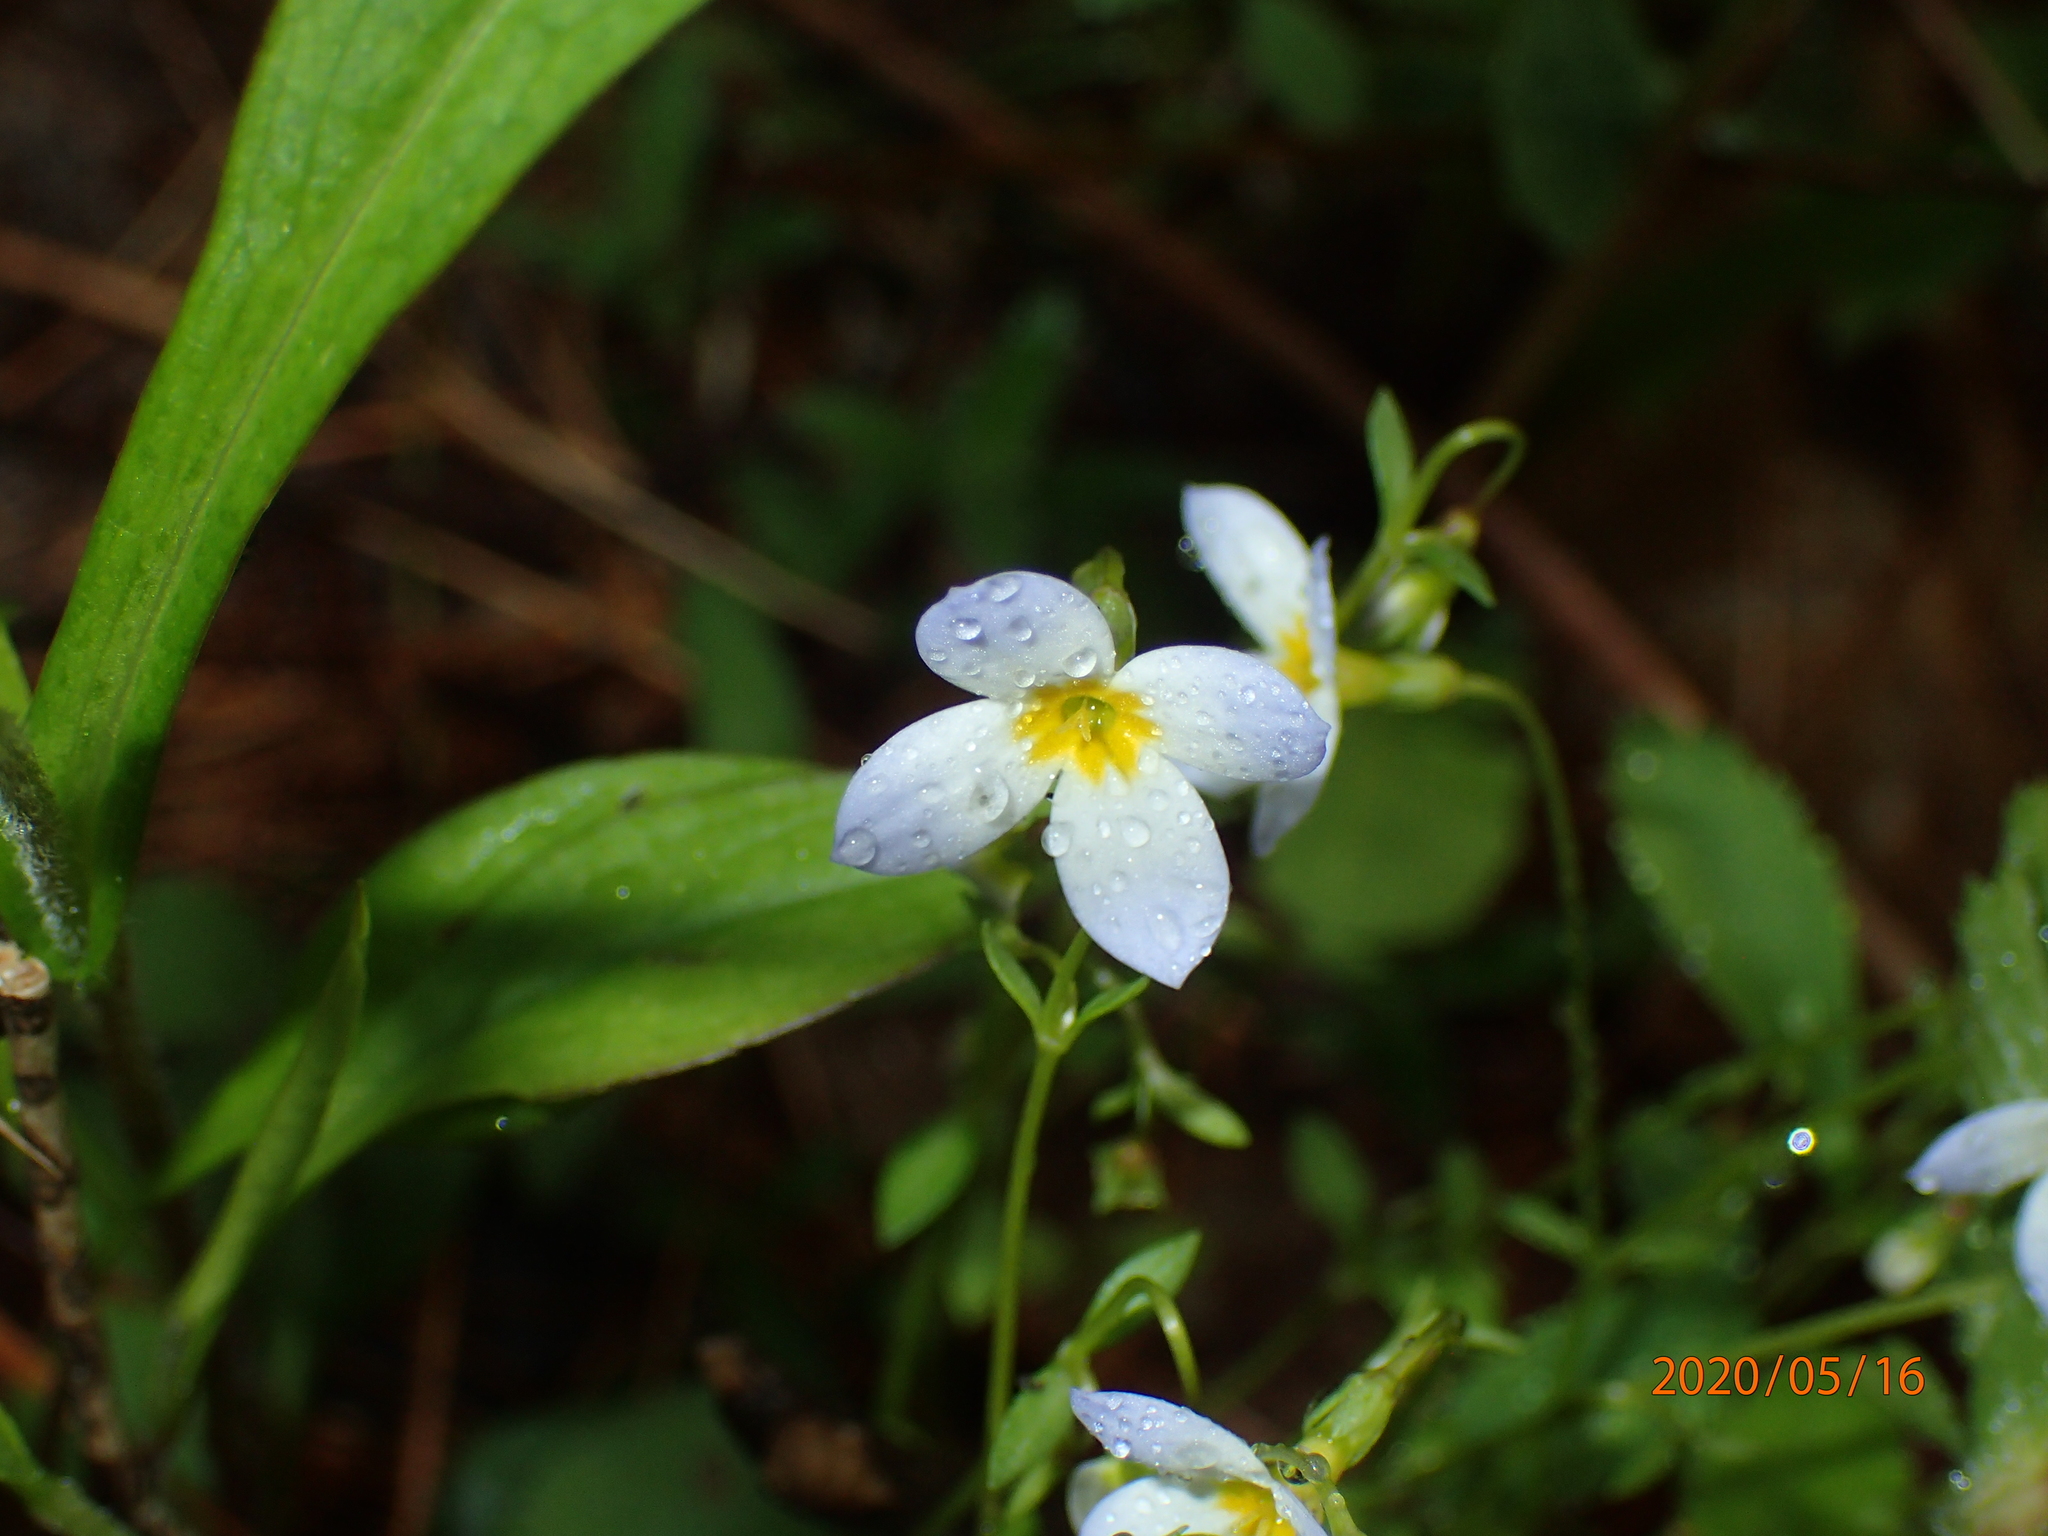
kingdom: Plantae
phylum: Tracheophyta
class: Magnoliopsida
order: Gentianales
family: Rubiaceae
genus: Houstonia
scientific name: Houstonia caerulea
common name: Bluets
